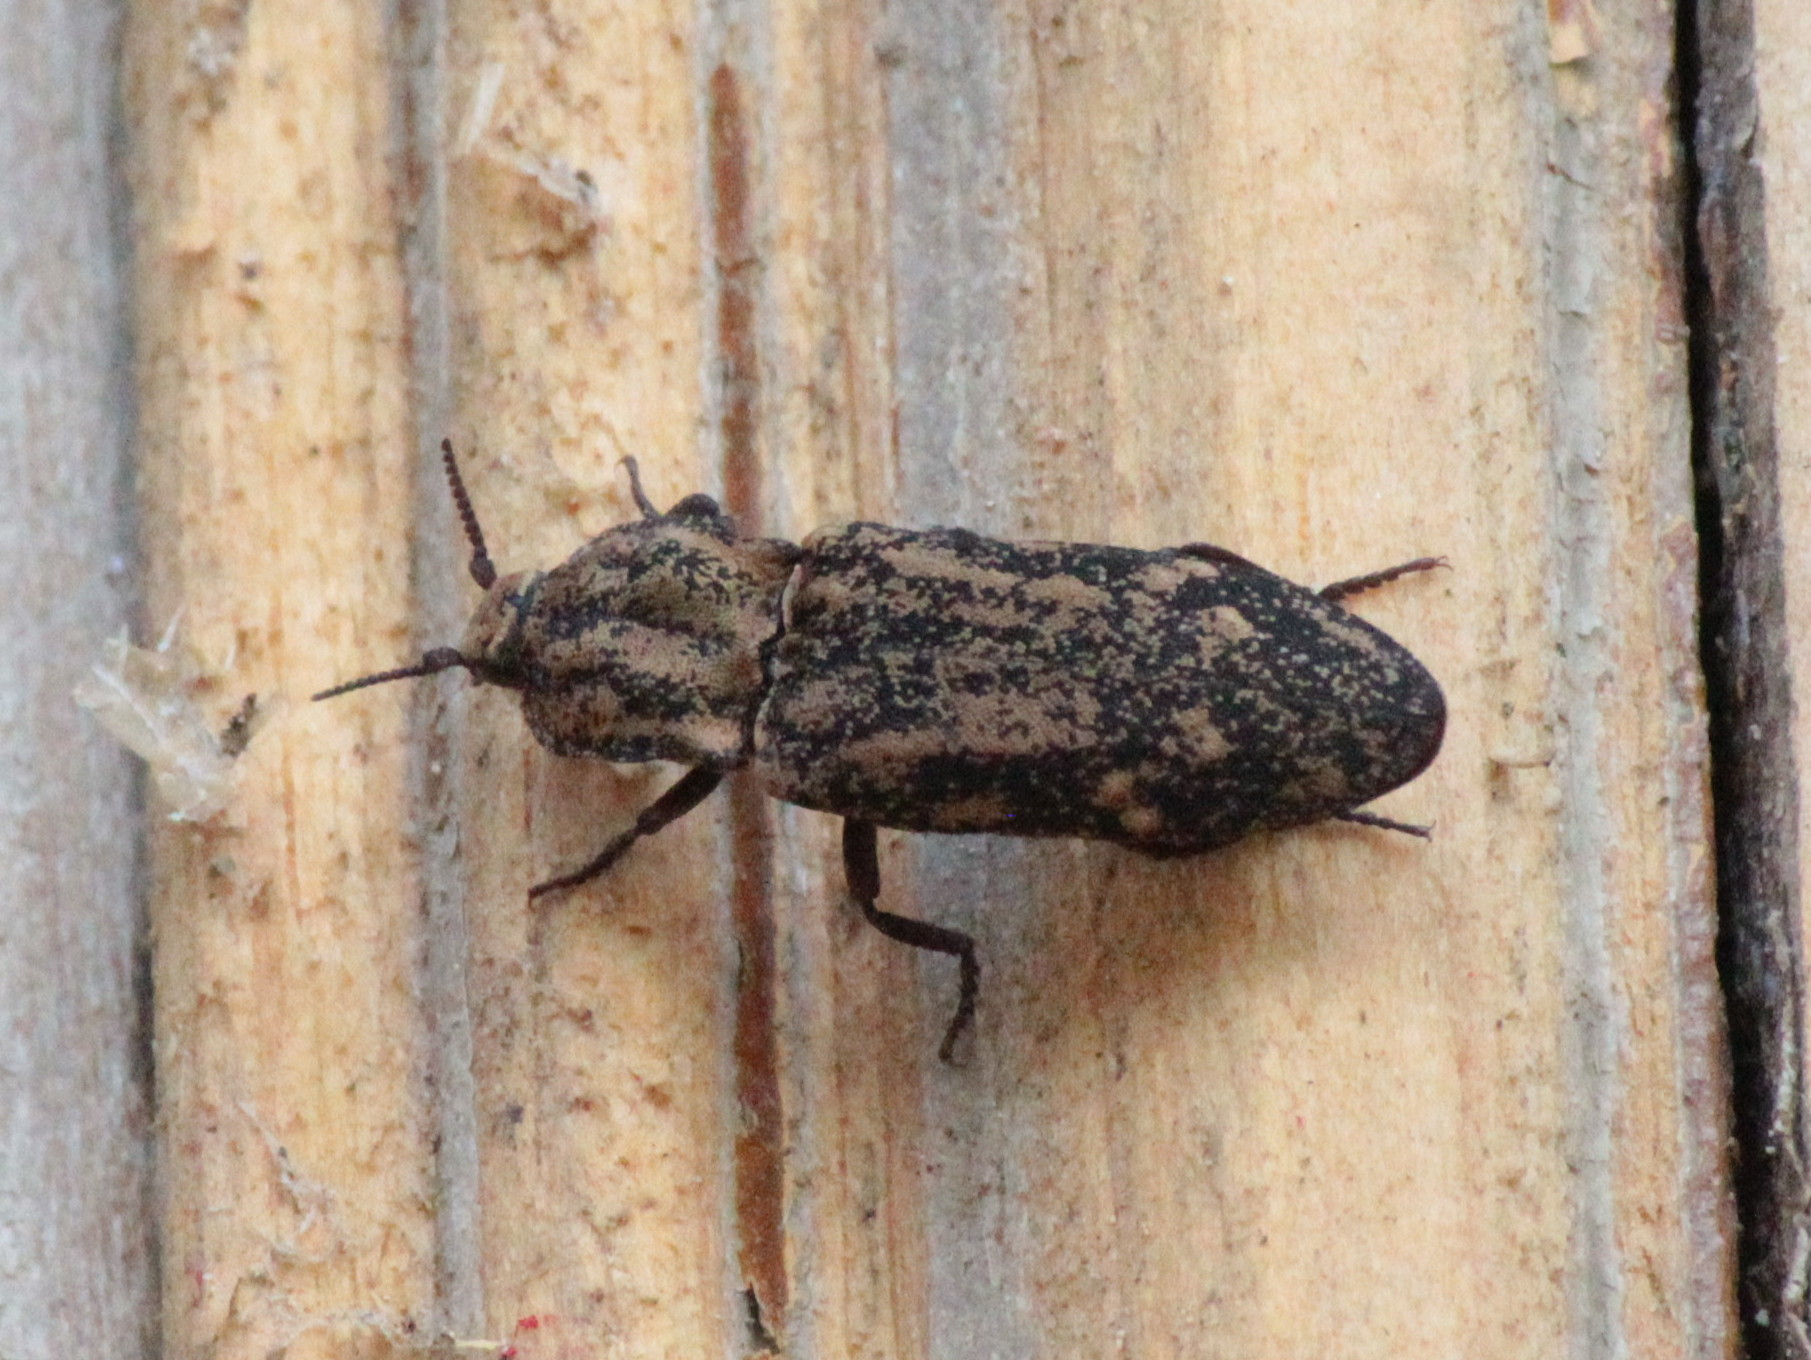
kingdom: Animalia
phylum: Arthropoda
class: Insecta
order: Coleoptera
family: Elateridae
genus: Danosoma
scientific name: Danosoma brevicorne
